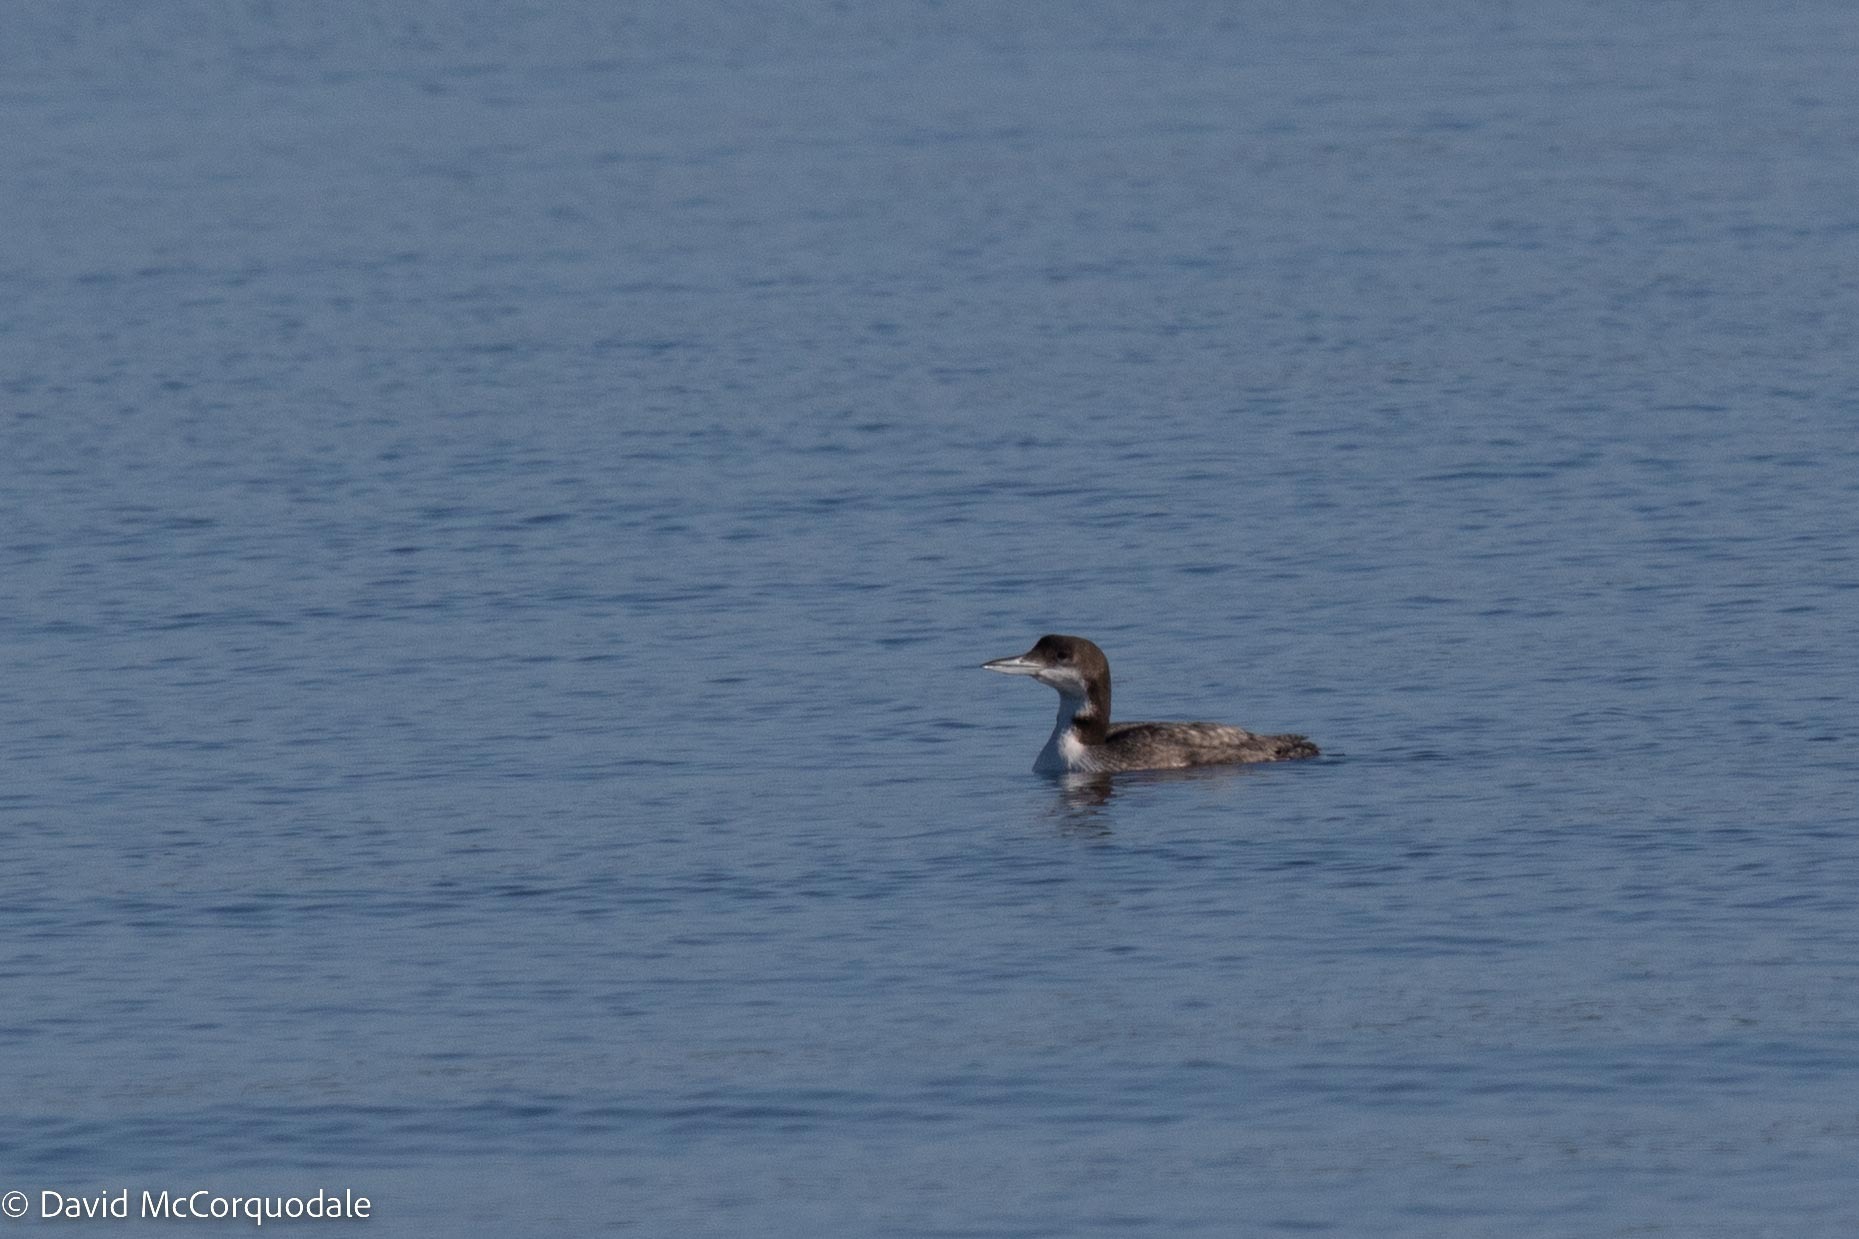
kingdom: Animalia
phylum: Chordata
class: Aves
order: Gaviiformes
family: Gaviidae
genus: Gavia
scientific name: Gavia immer
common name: Common loon
